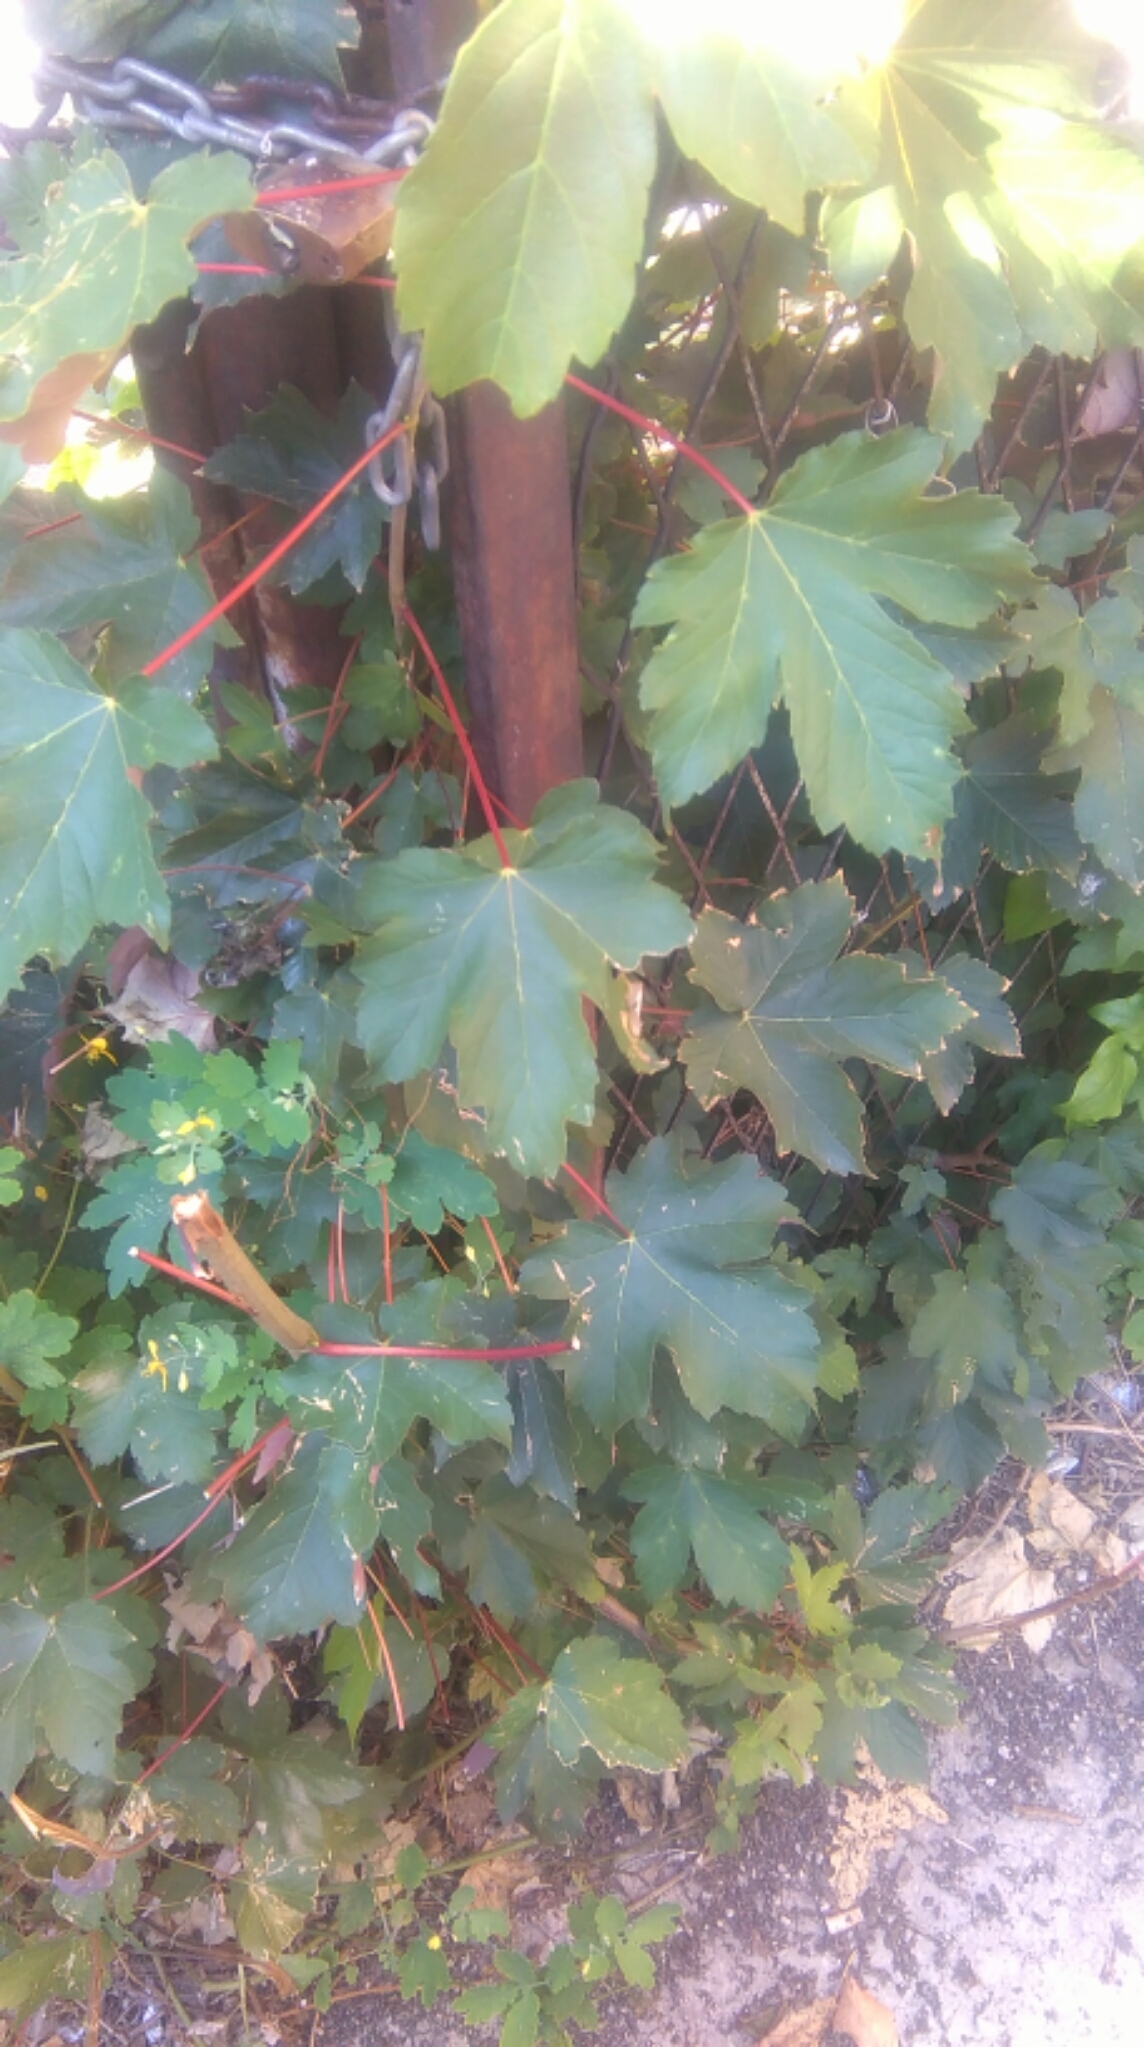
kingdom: Plantae
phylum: Tracheophyta
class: Magnoliopsida
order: Sapindales
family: Sapindaceae
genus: Acer
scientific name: Acer pseudoplatanus
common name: Sycamore
